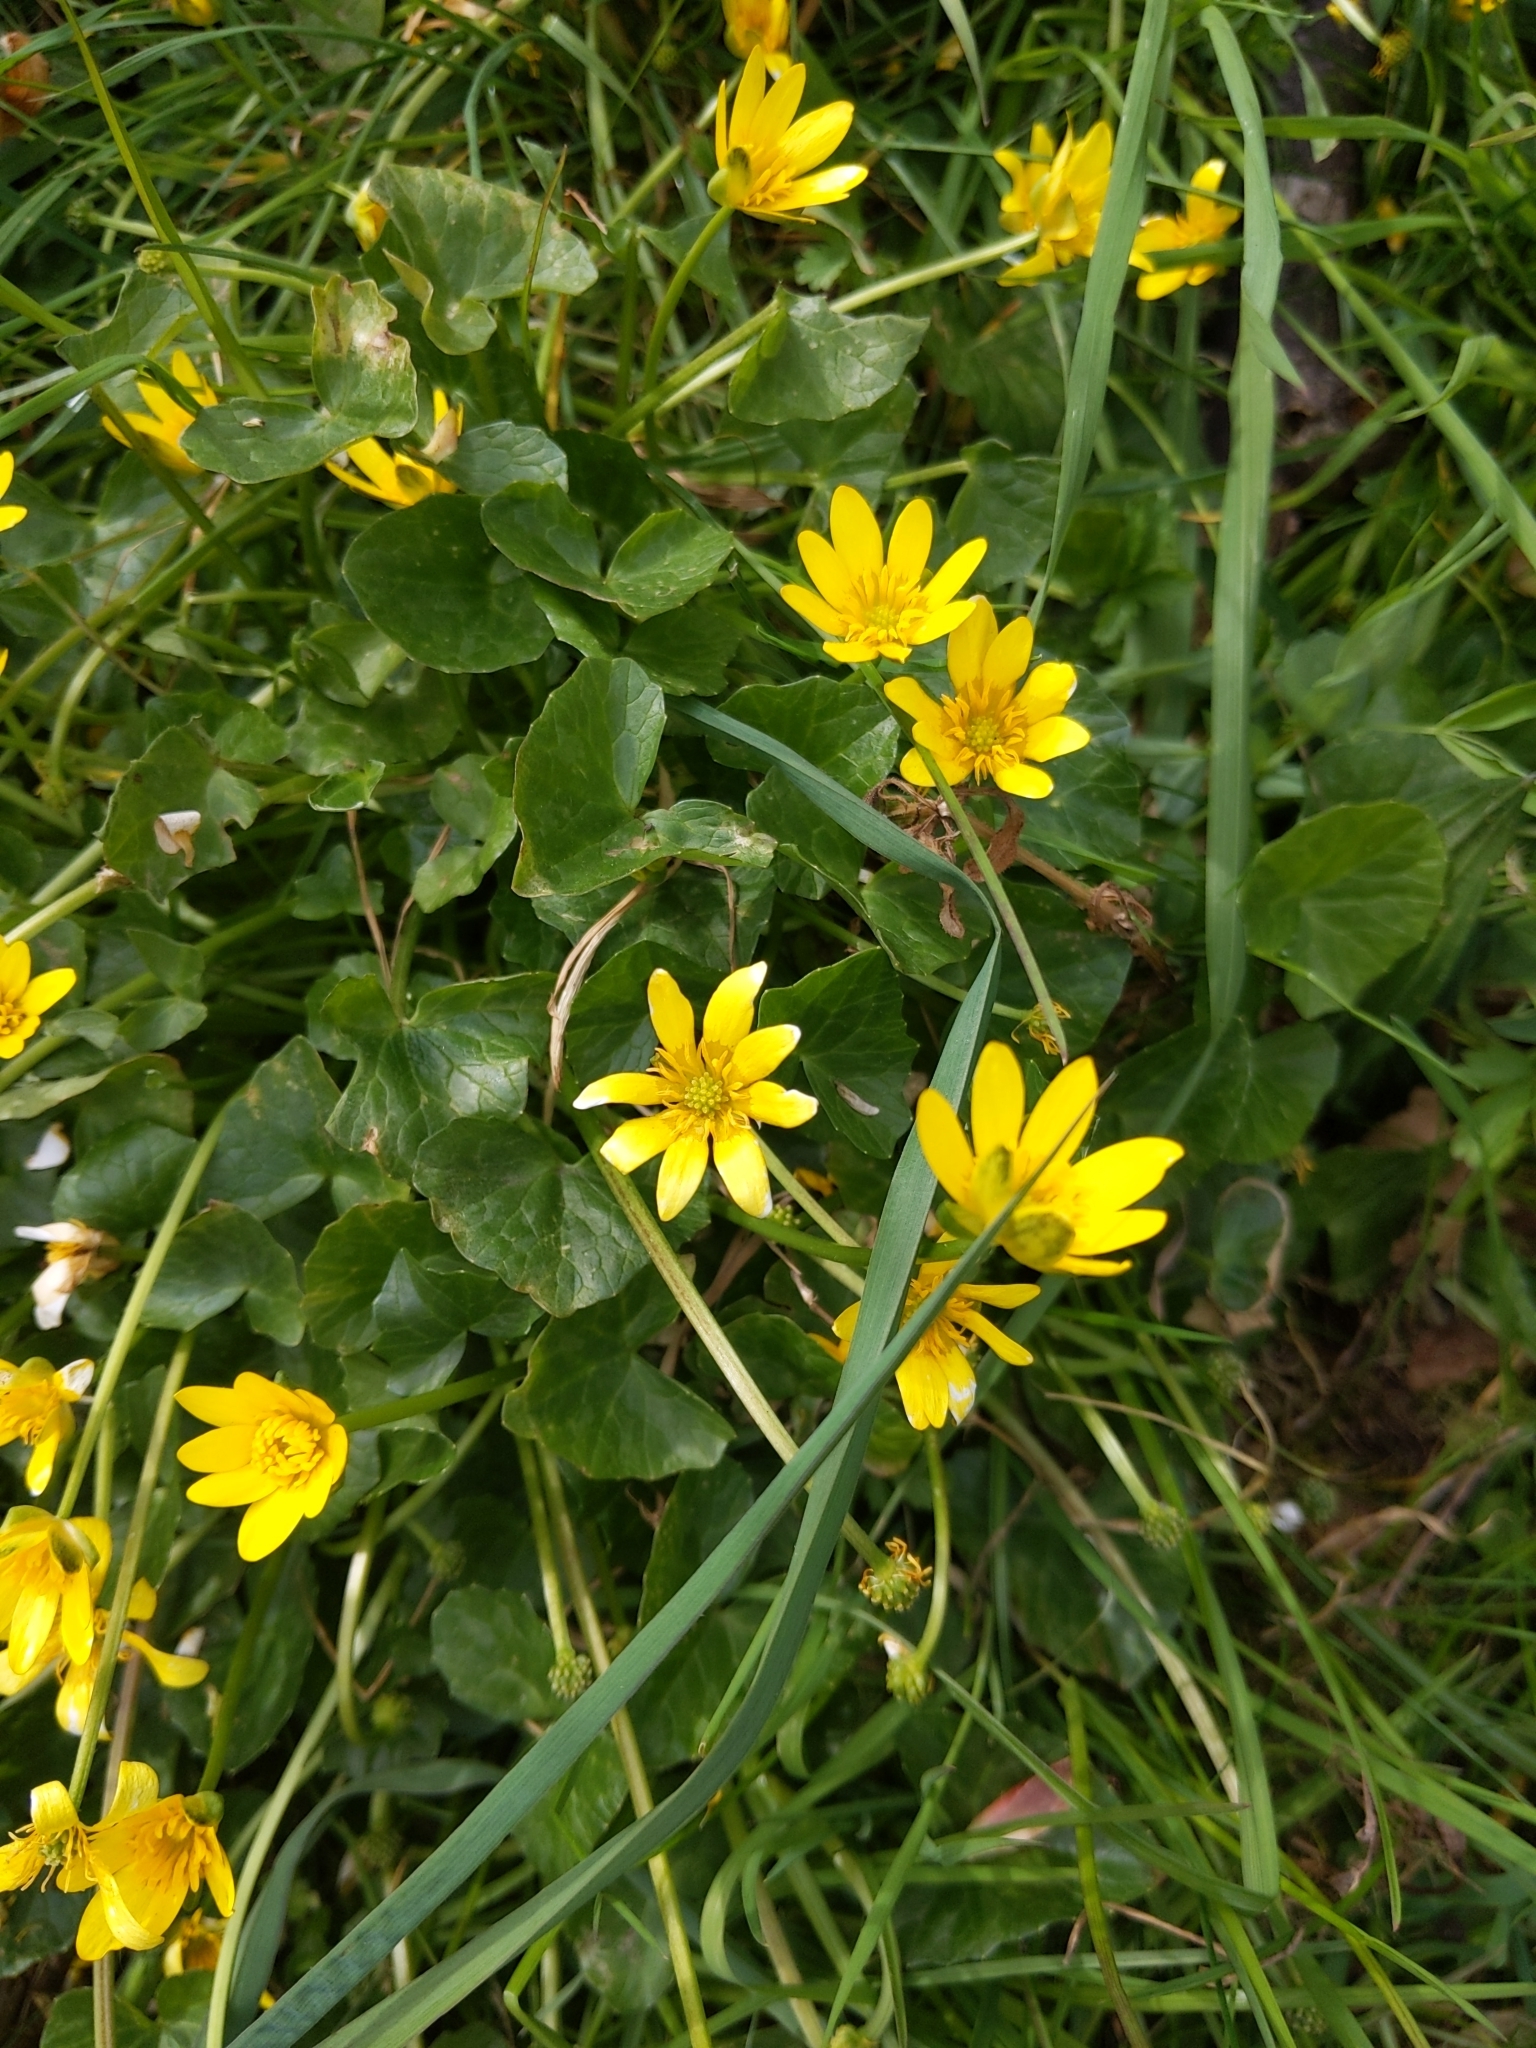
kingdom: Plantae
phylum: Tracheophyta
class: Magnoliopsida
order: Ranunculales
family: Ranunculaceae
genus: Ficaria
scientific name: Ficaria verna
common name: Lesser celandine
